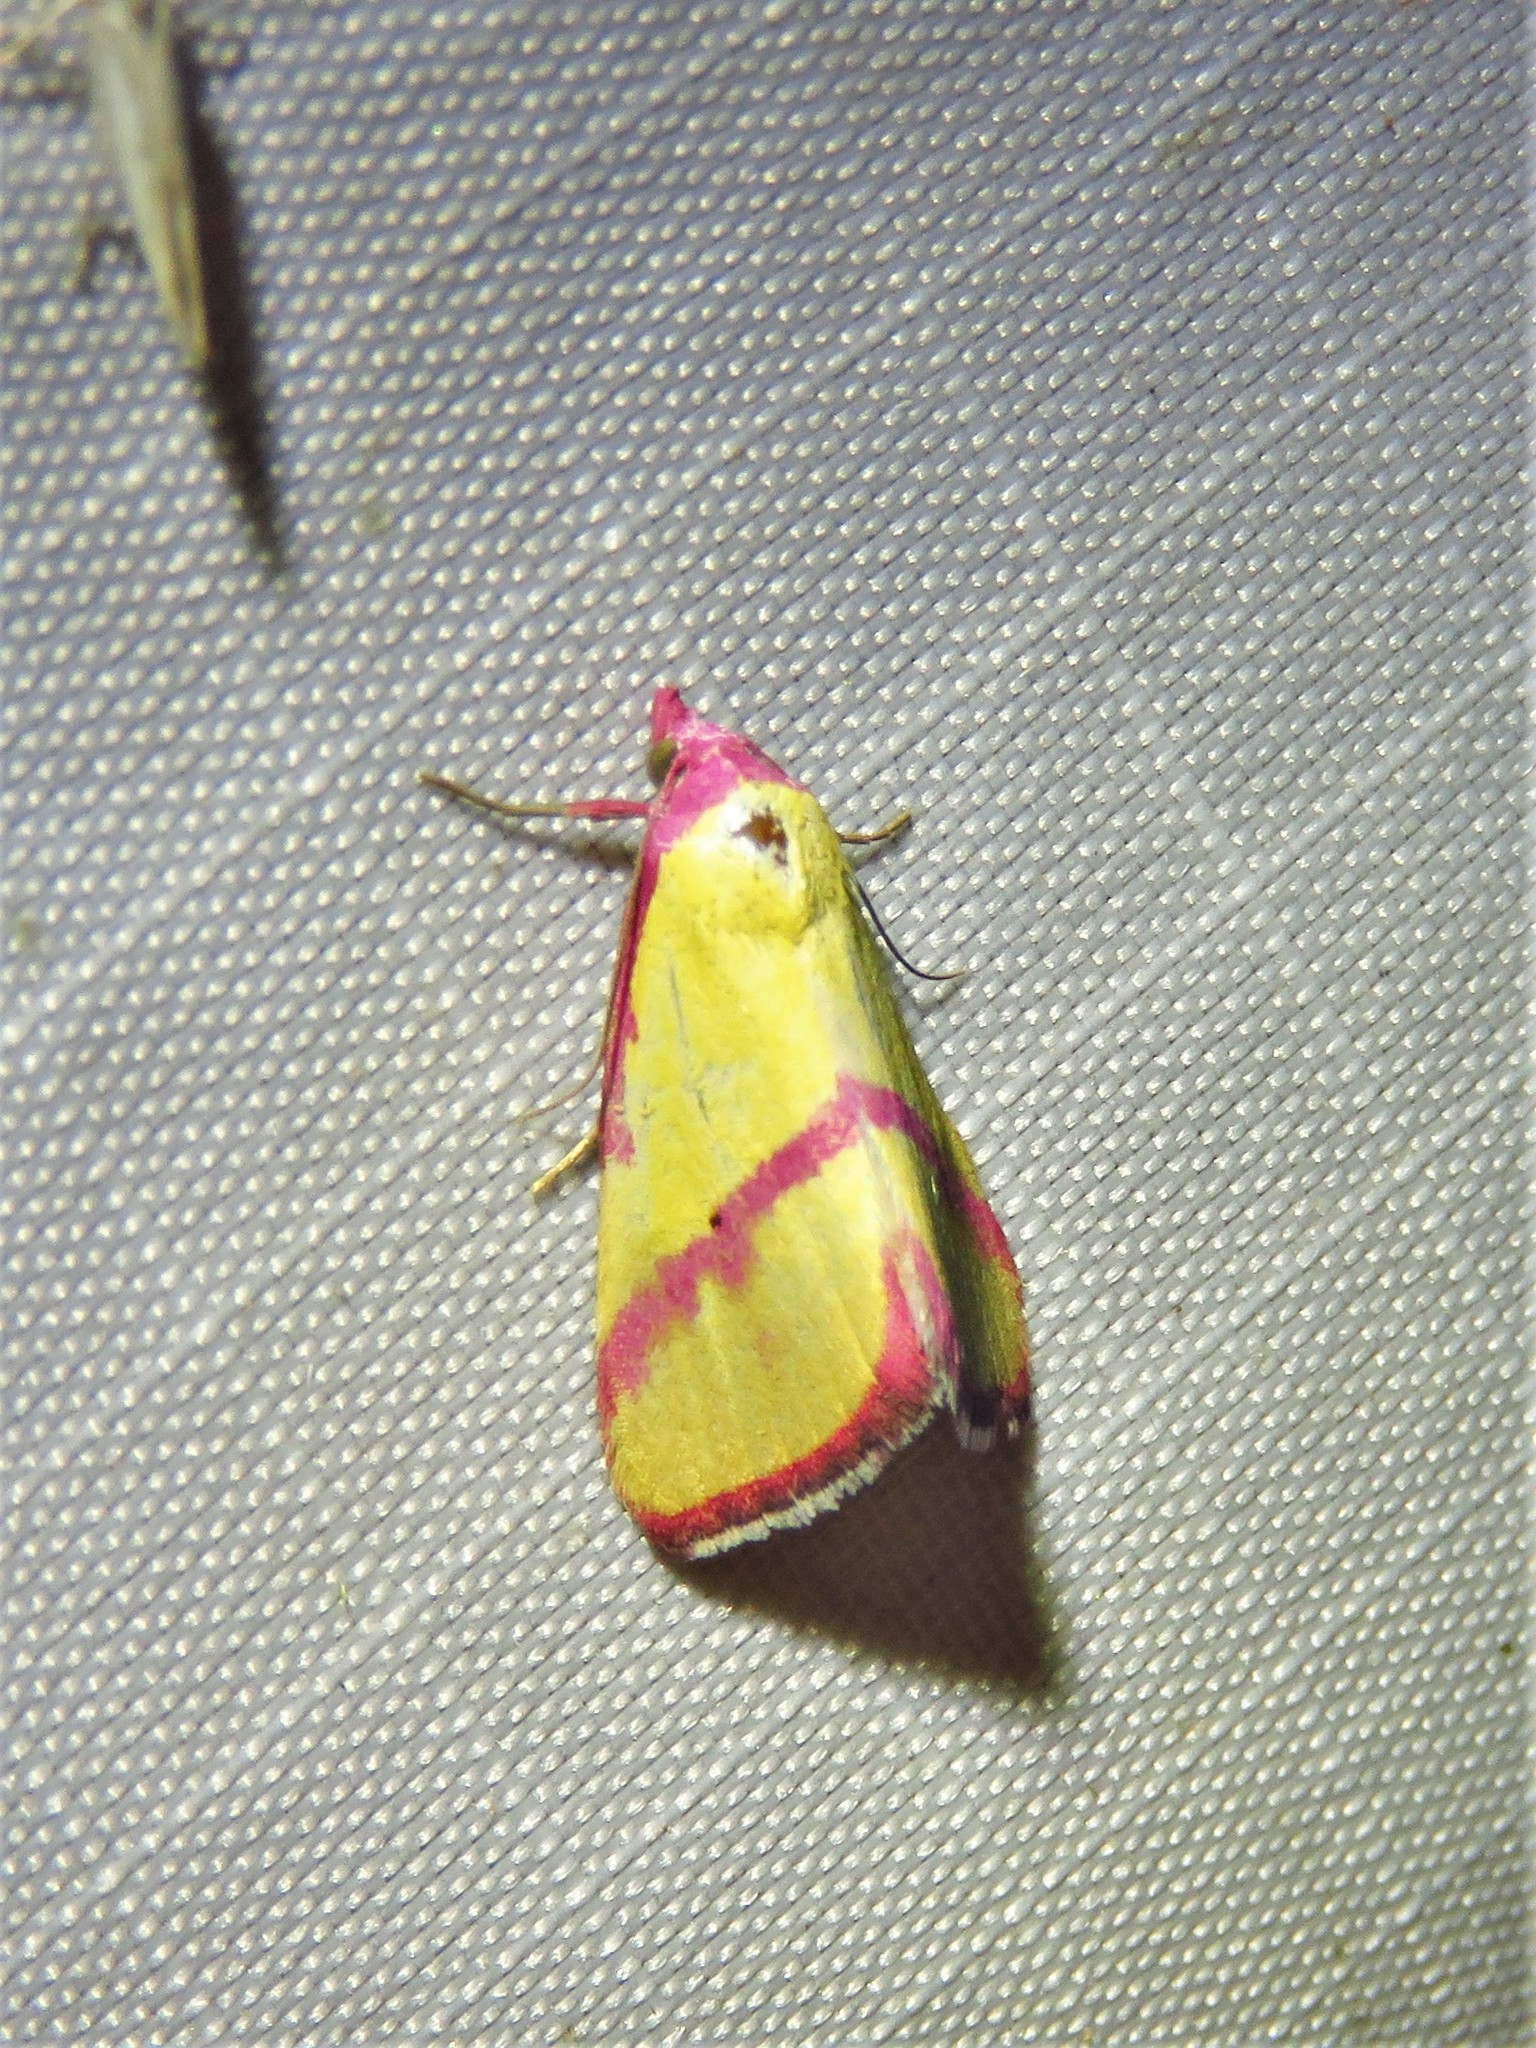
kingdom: Animalia
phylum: Arthropoda
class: Insecta
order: Lepidoptera
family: Erebidae
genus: Phytometra
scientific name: Phytometra ernestinana
